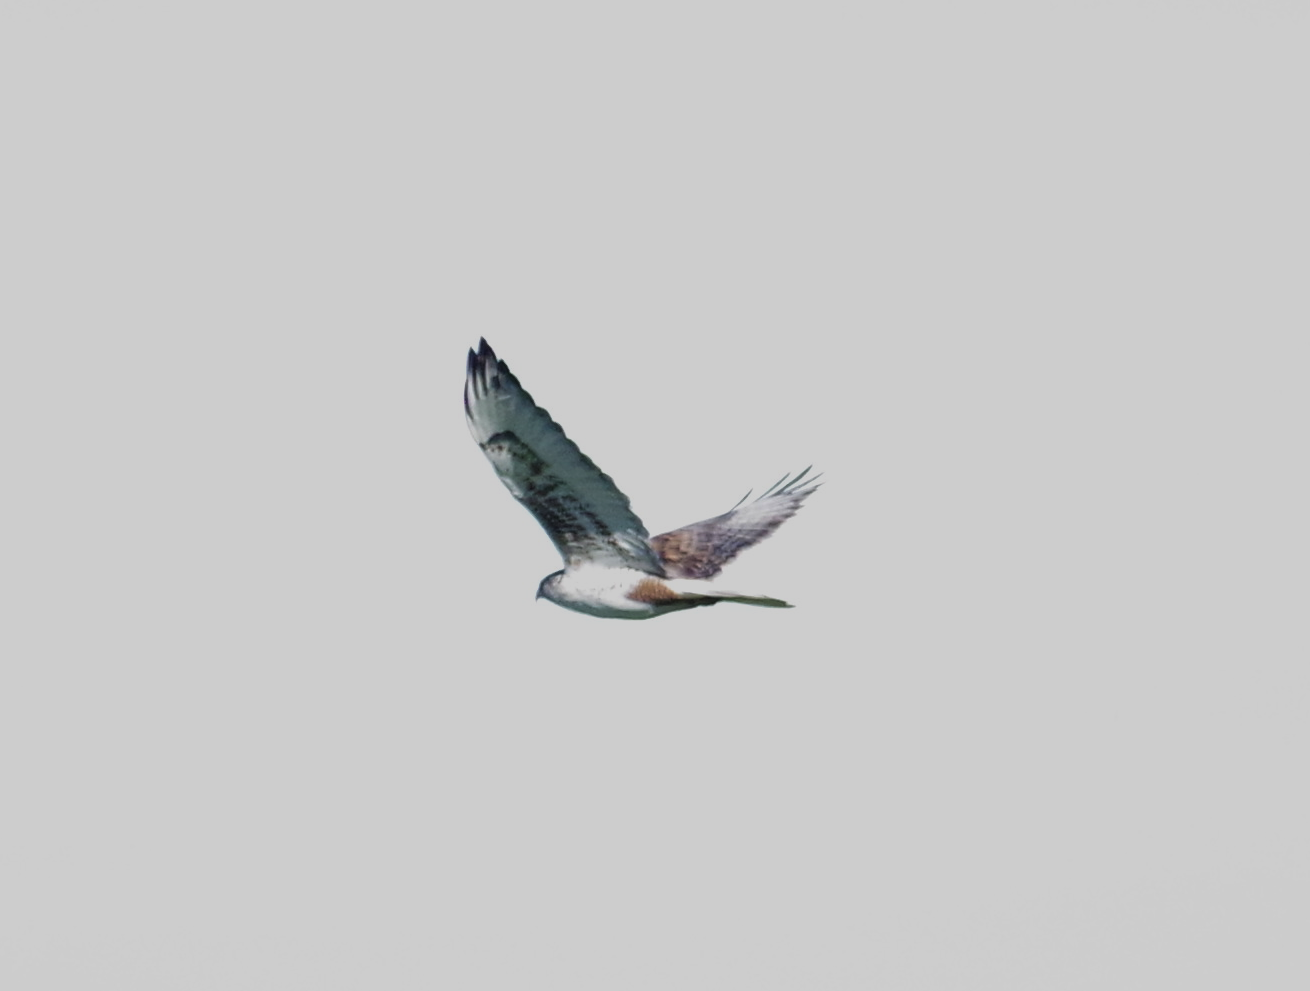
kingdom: Animalia
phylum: Chordata
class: Aves
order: Accipitriformes
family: Accipitridae
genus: Buteo
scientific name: Buteo regalis
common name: Ferruginous hawk
